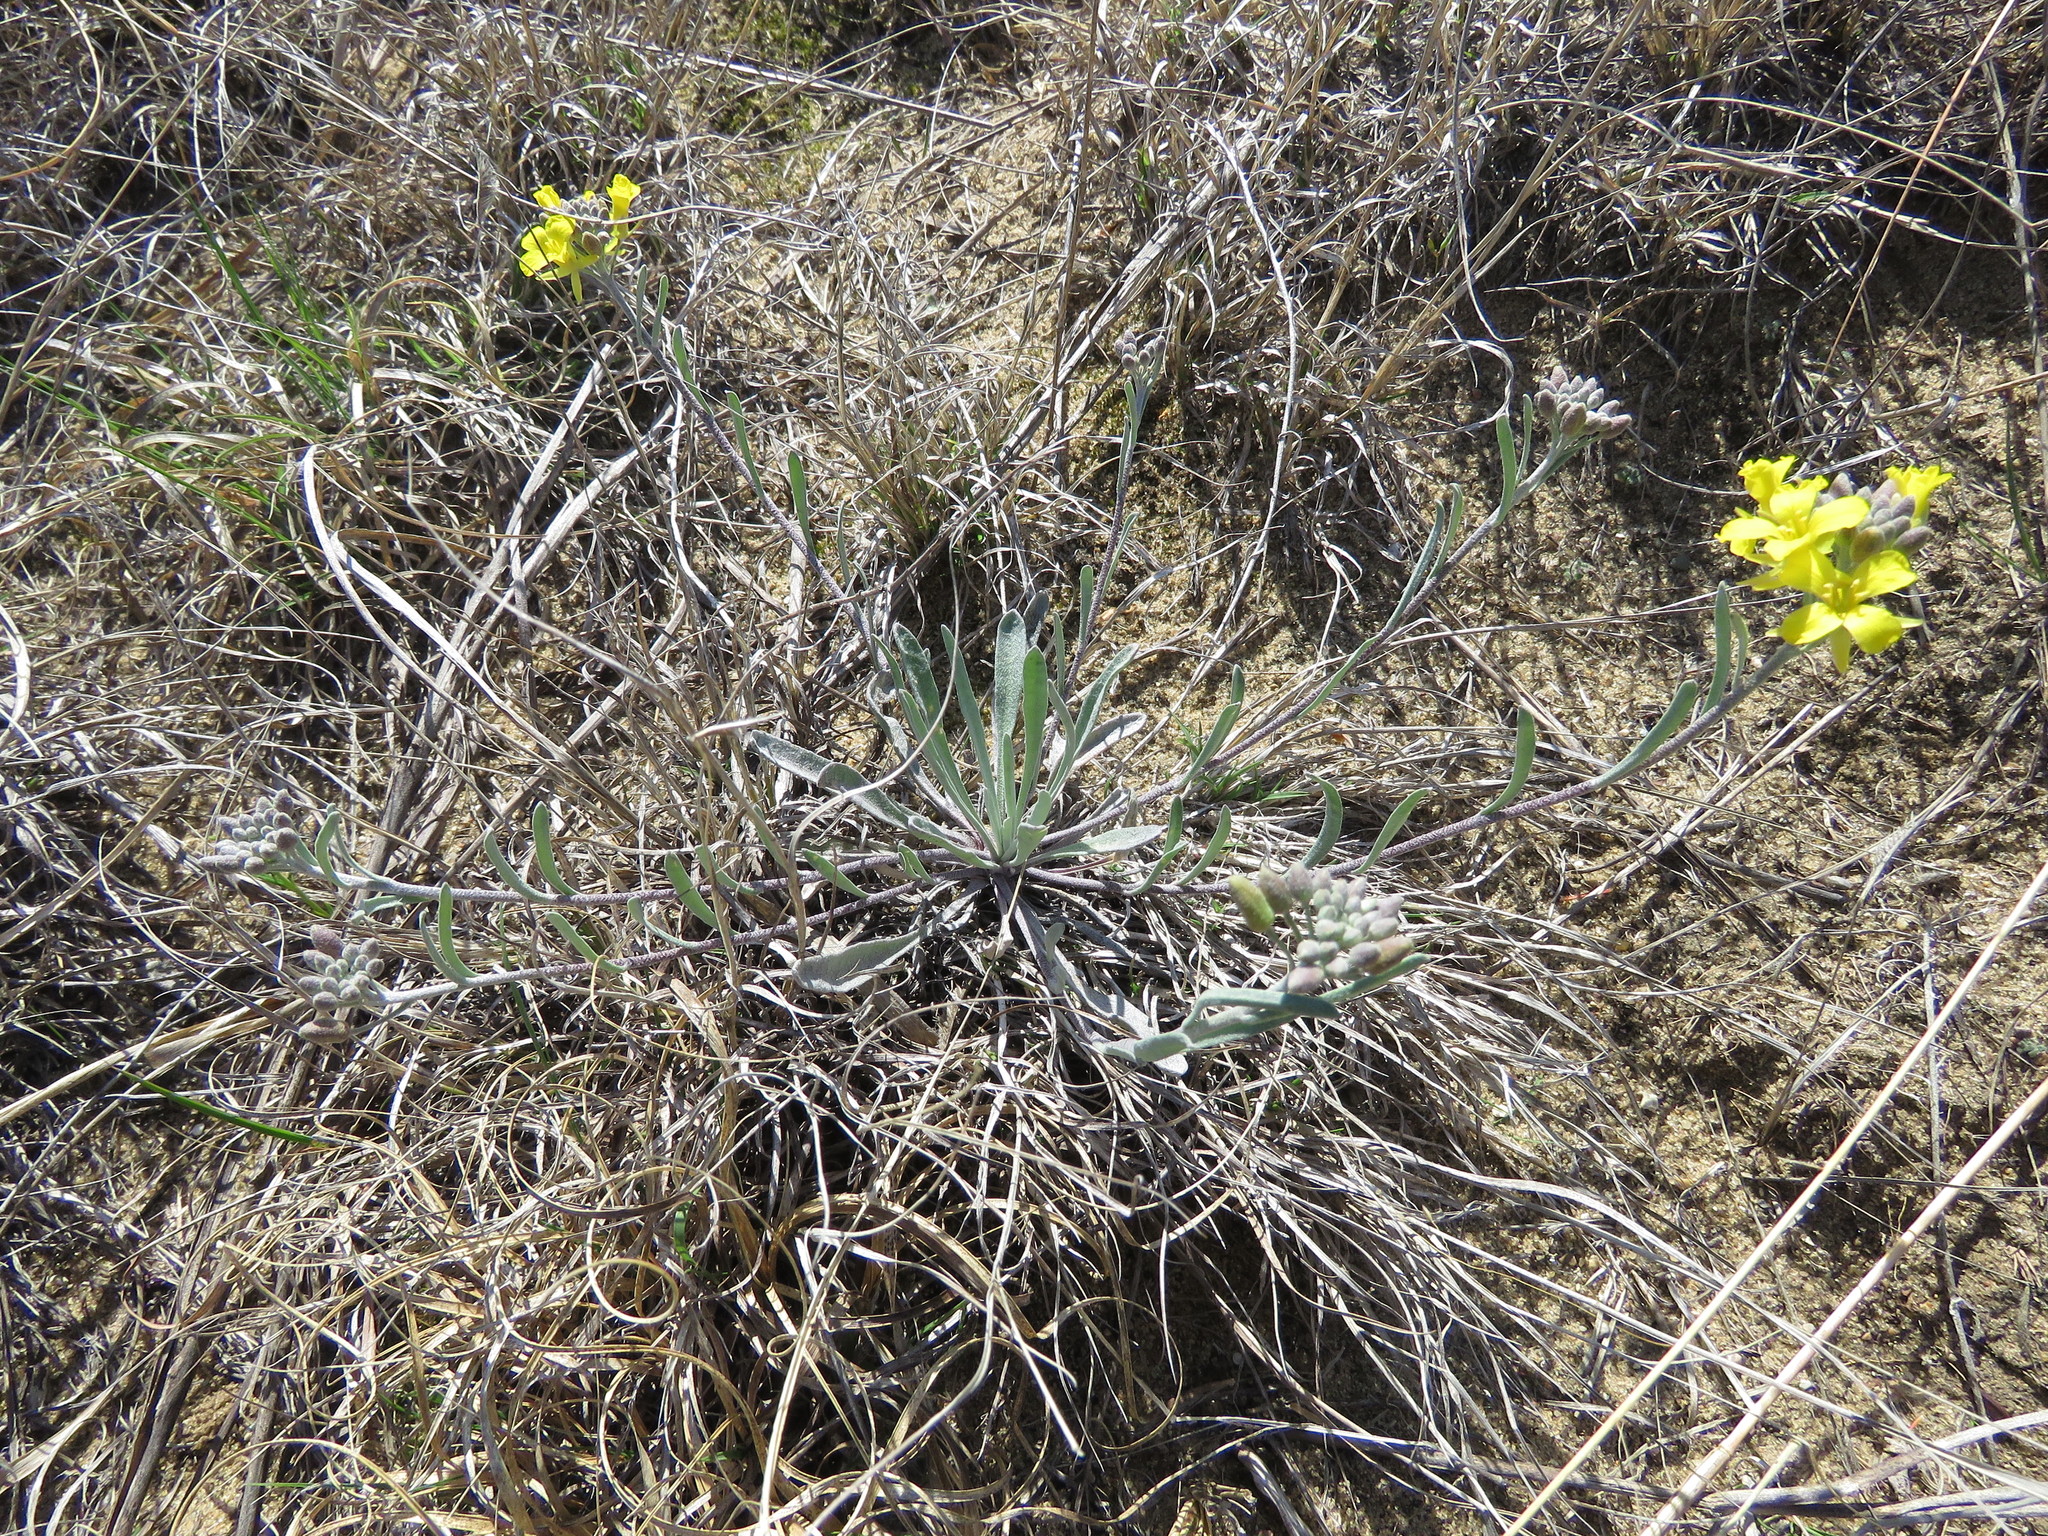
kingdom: Plantae
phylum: Tracheophyta
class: Magnoliopsida
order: Brassicales
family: Brassicaceae
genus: Physaria
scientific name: Physaria ludoviciana
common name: Foothill bladderpod
